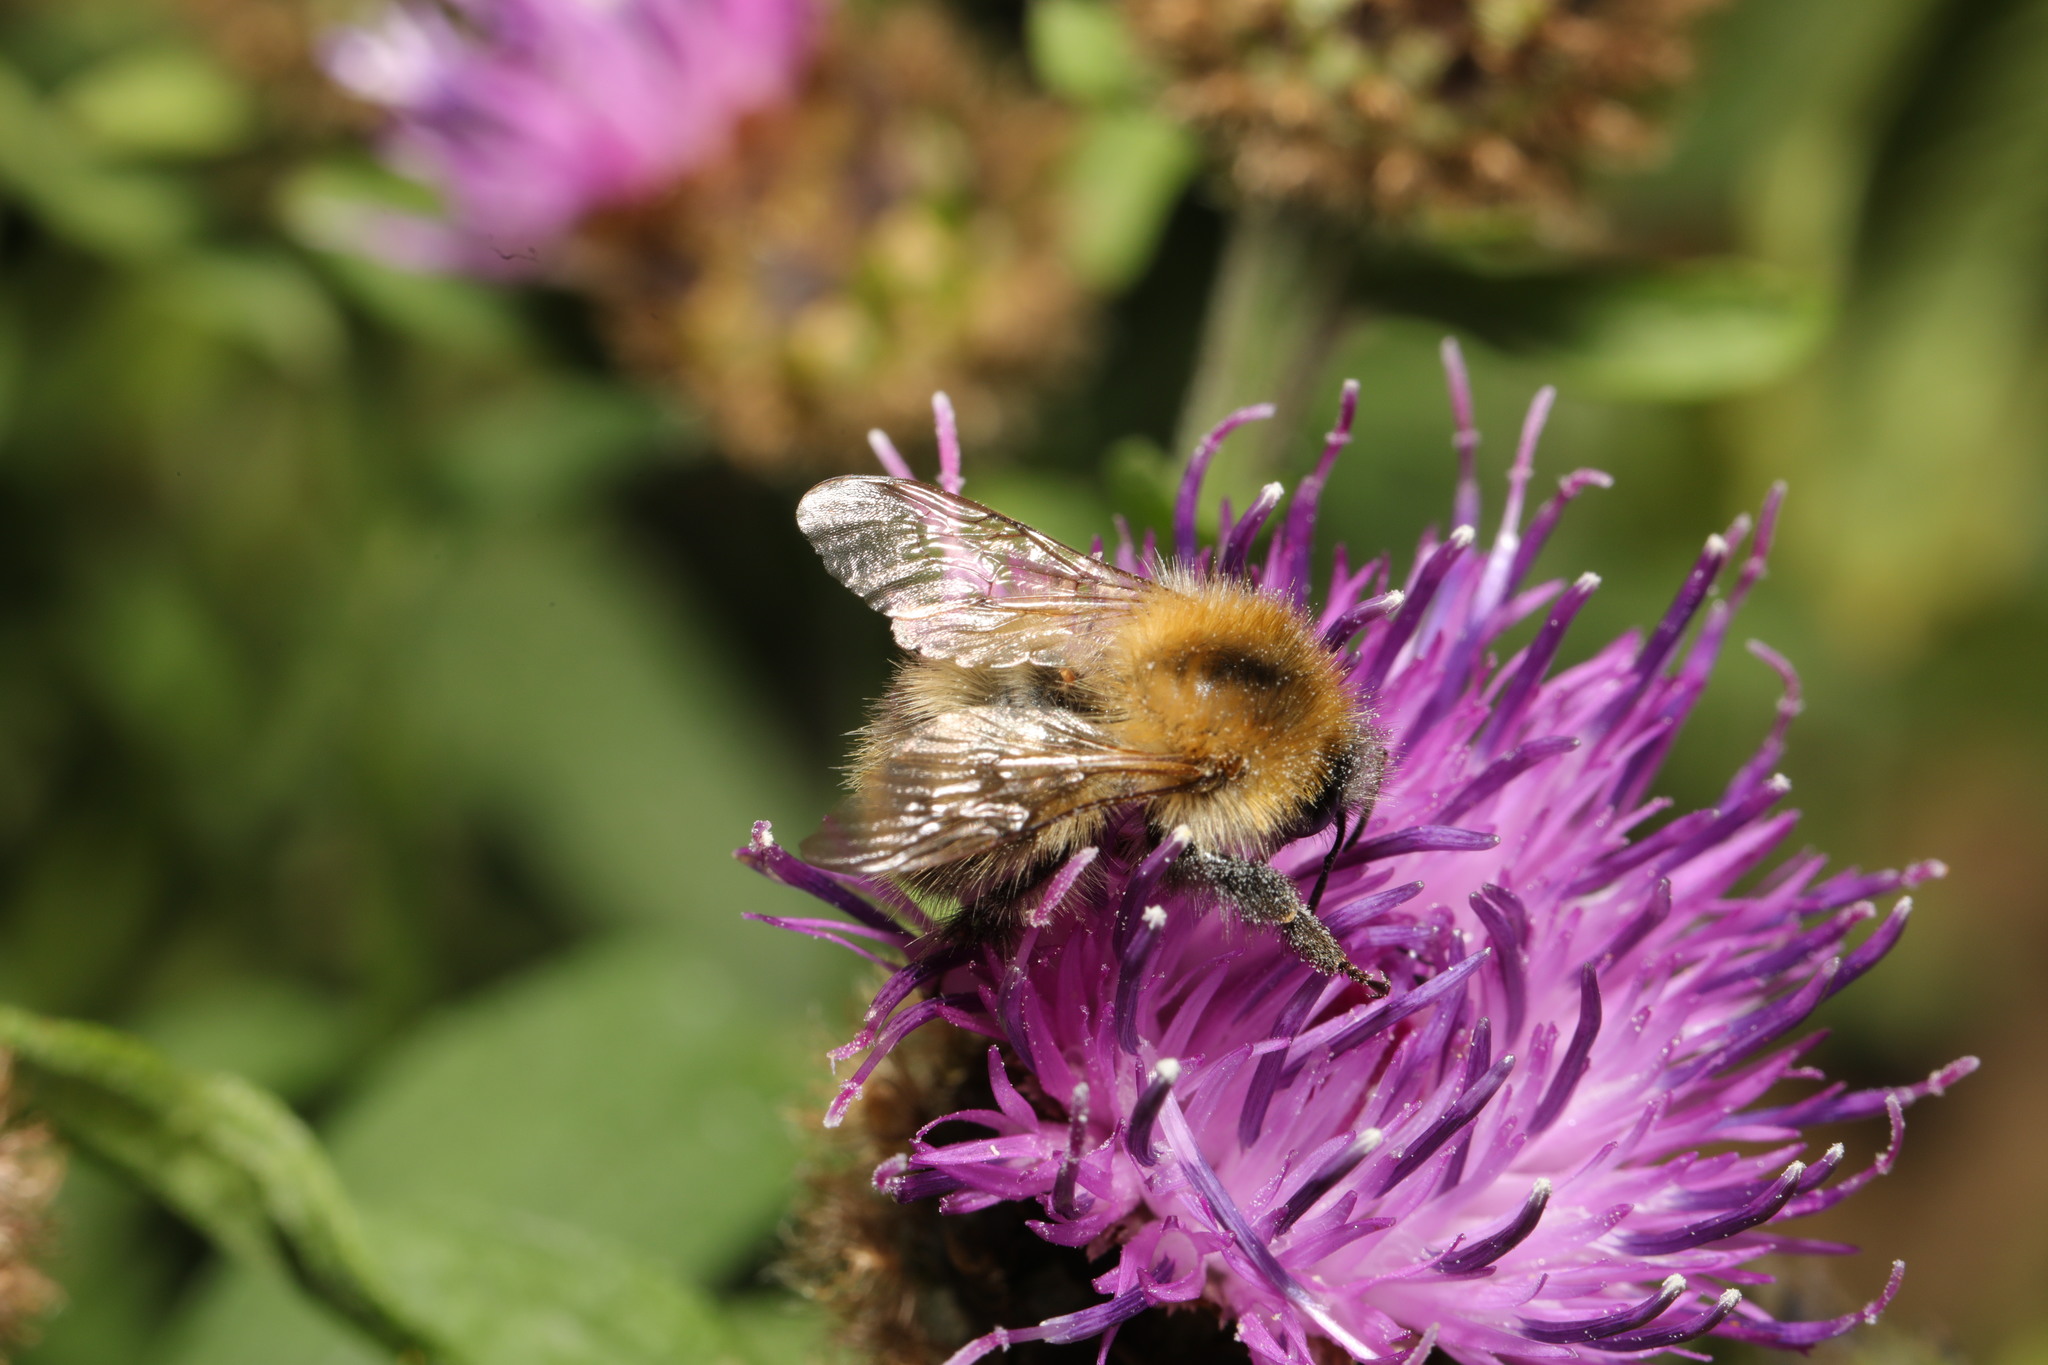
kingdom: Animalia
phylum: Arthropoda
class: Insecta
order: Hymenoptera
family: Apidae
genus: Bombus
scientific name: Bombus pascuorum
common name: Common carder bee
